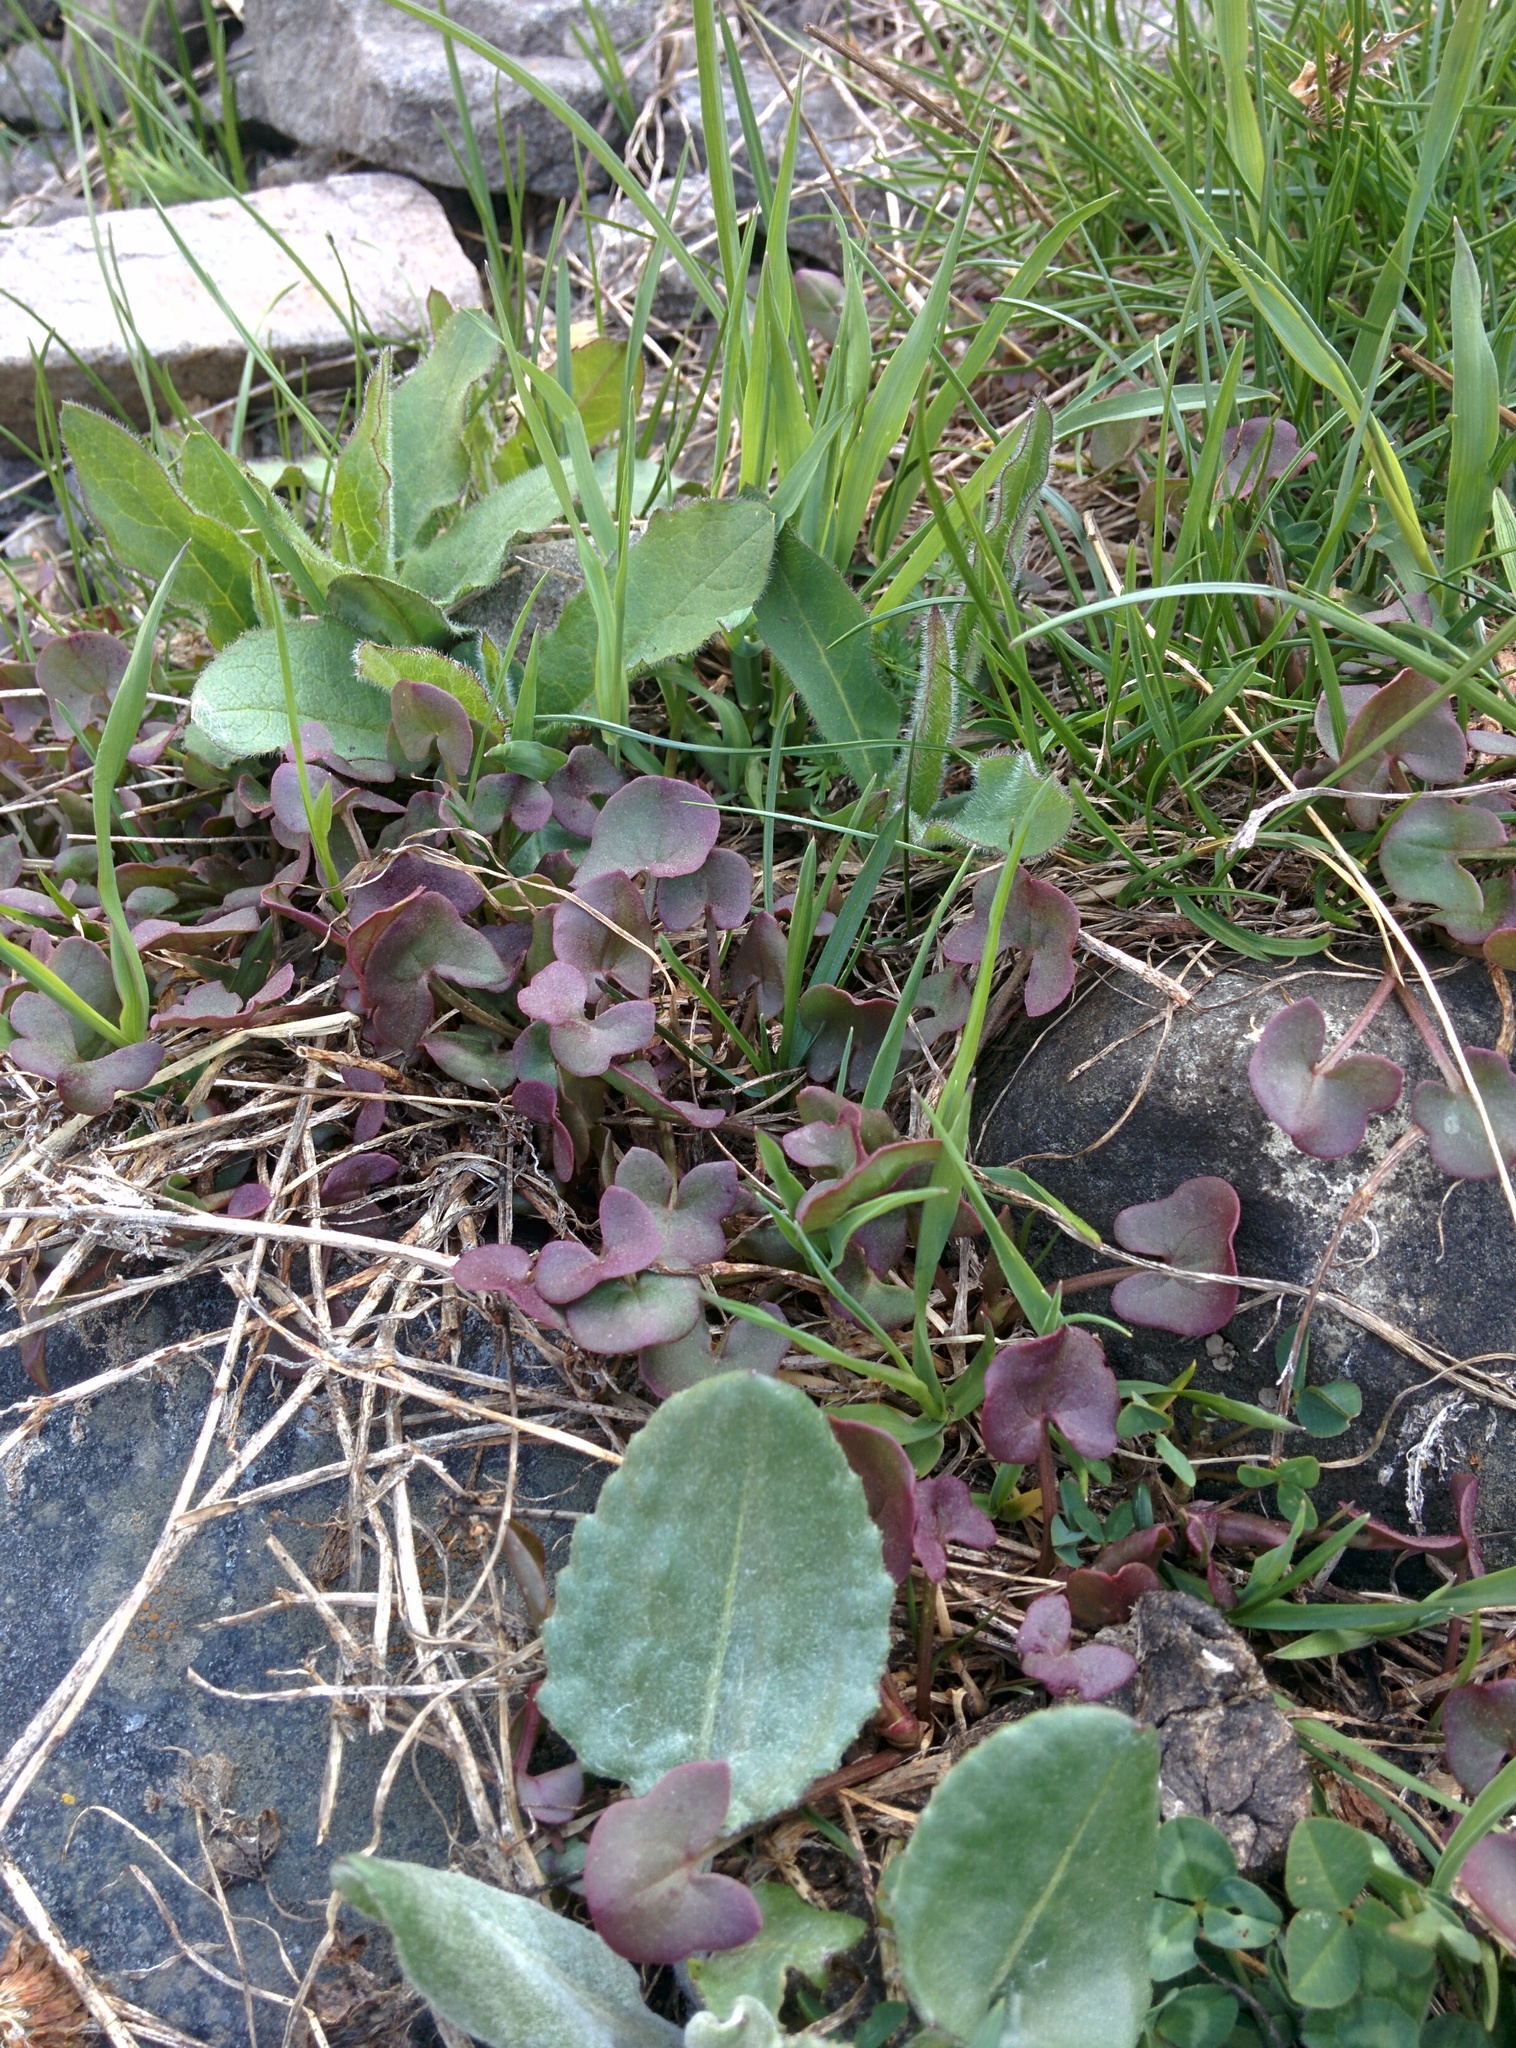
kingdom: Plantae
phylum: Tracheophyta
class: Magnoliopsida
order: Caryophyllales
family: Polygonaceae
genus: Oxyria
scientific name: Oxyria digyna
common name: Alpine mountain-sorrel
